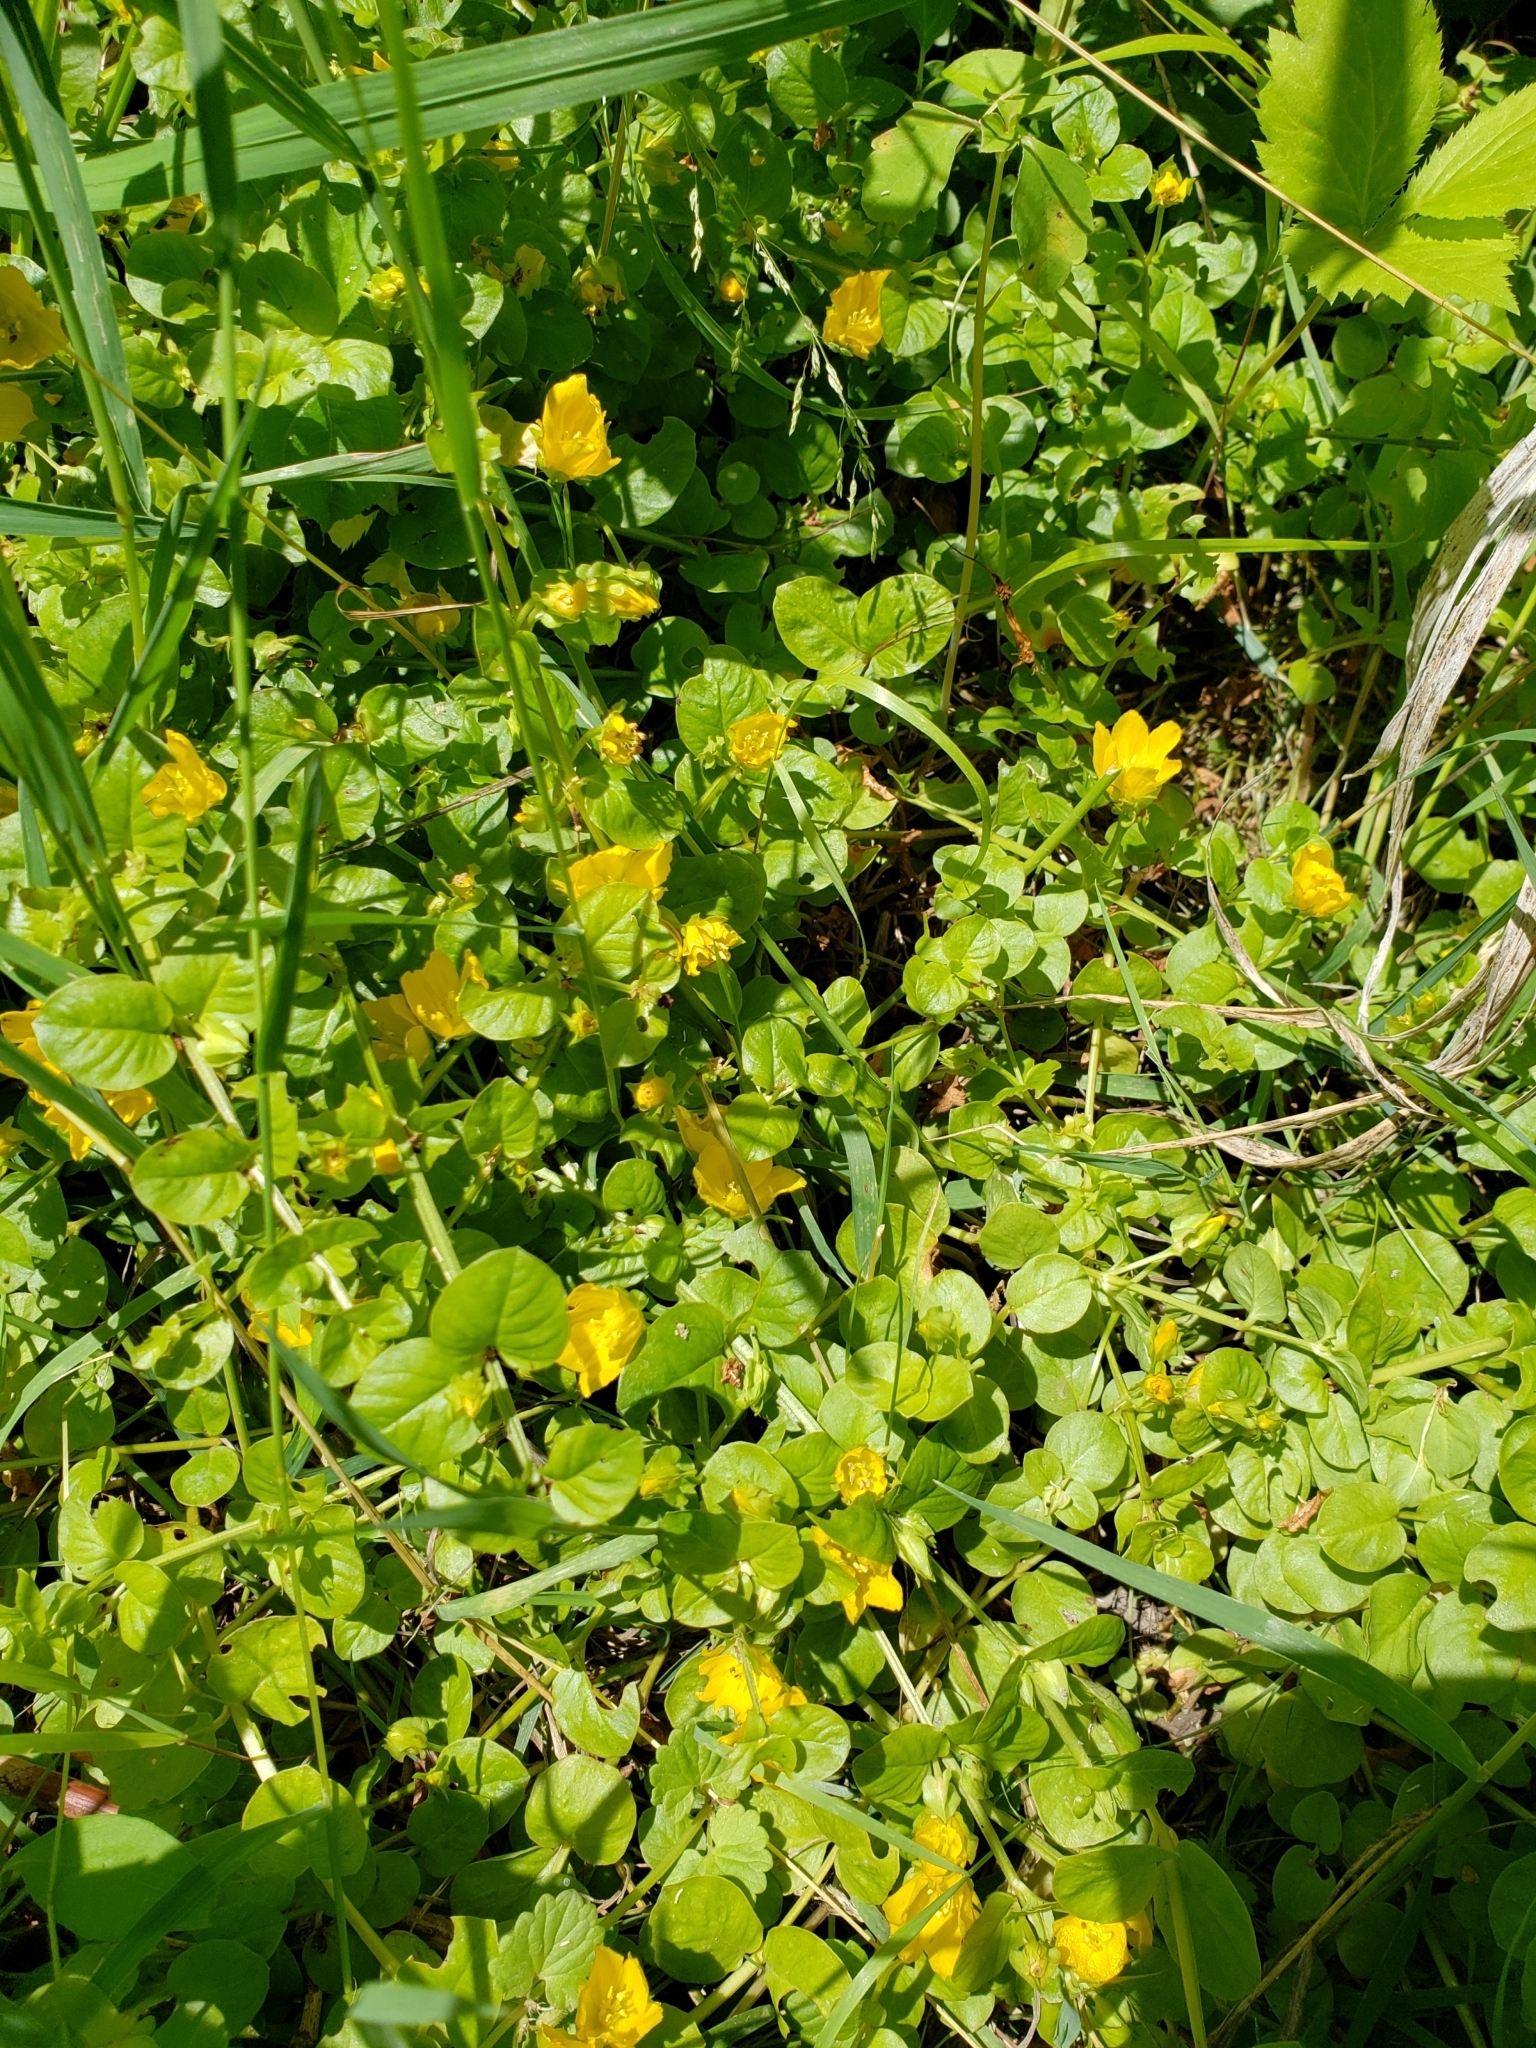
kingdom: Plantae
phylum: Tracheophyta
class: Magnoliopsida
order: Ericales
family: Primulaceae
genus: Lysimachia
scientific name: Lysimachia nummularia
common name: Moneywort
